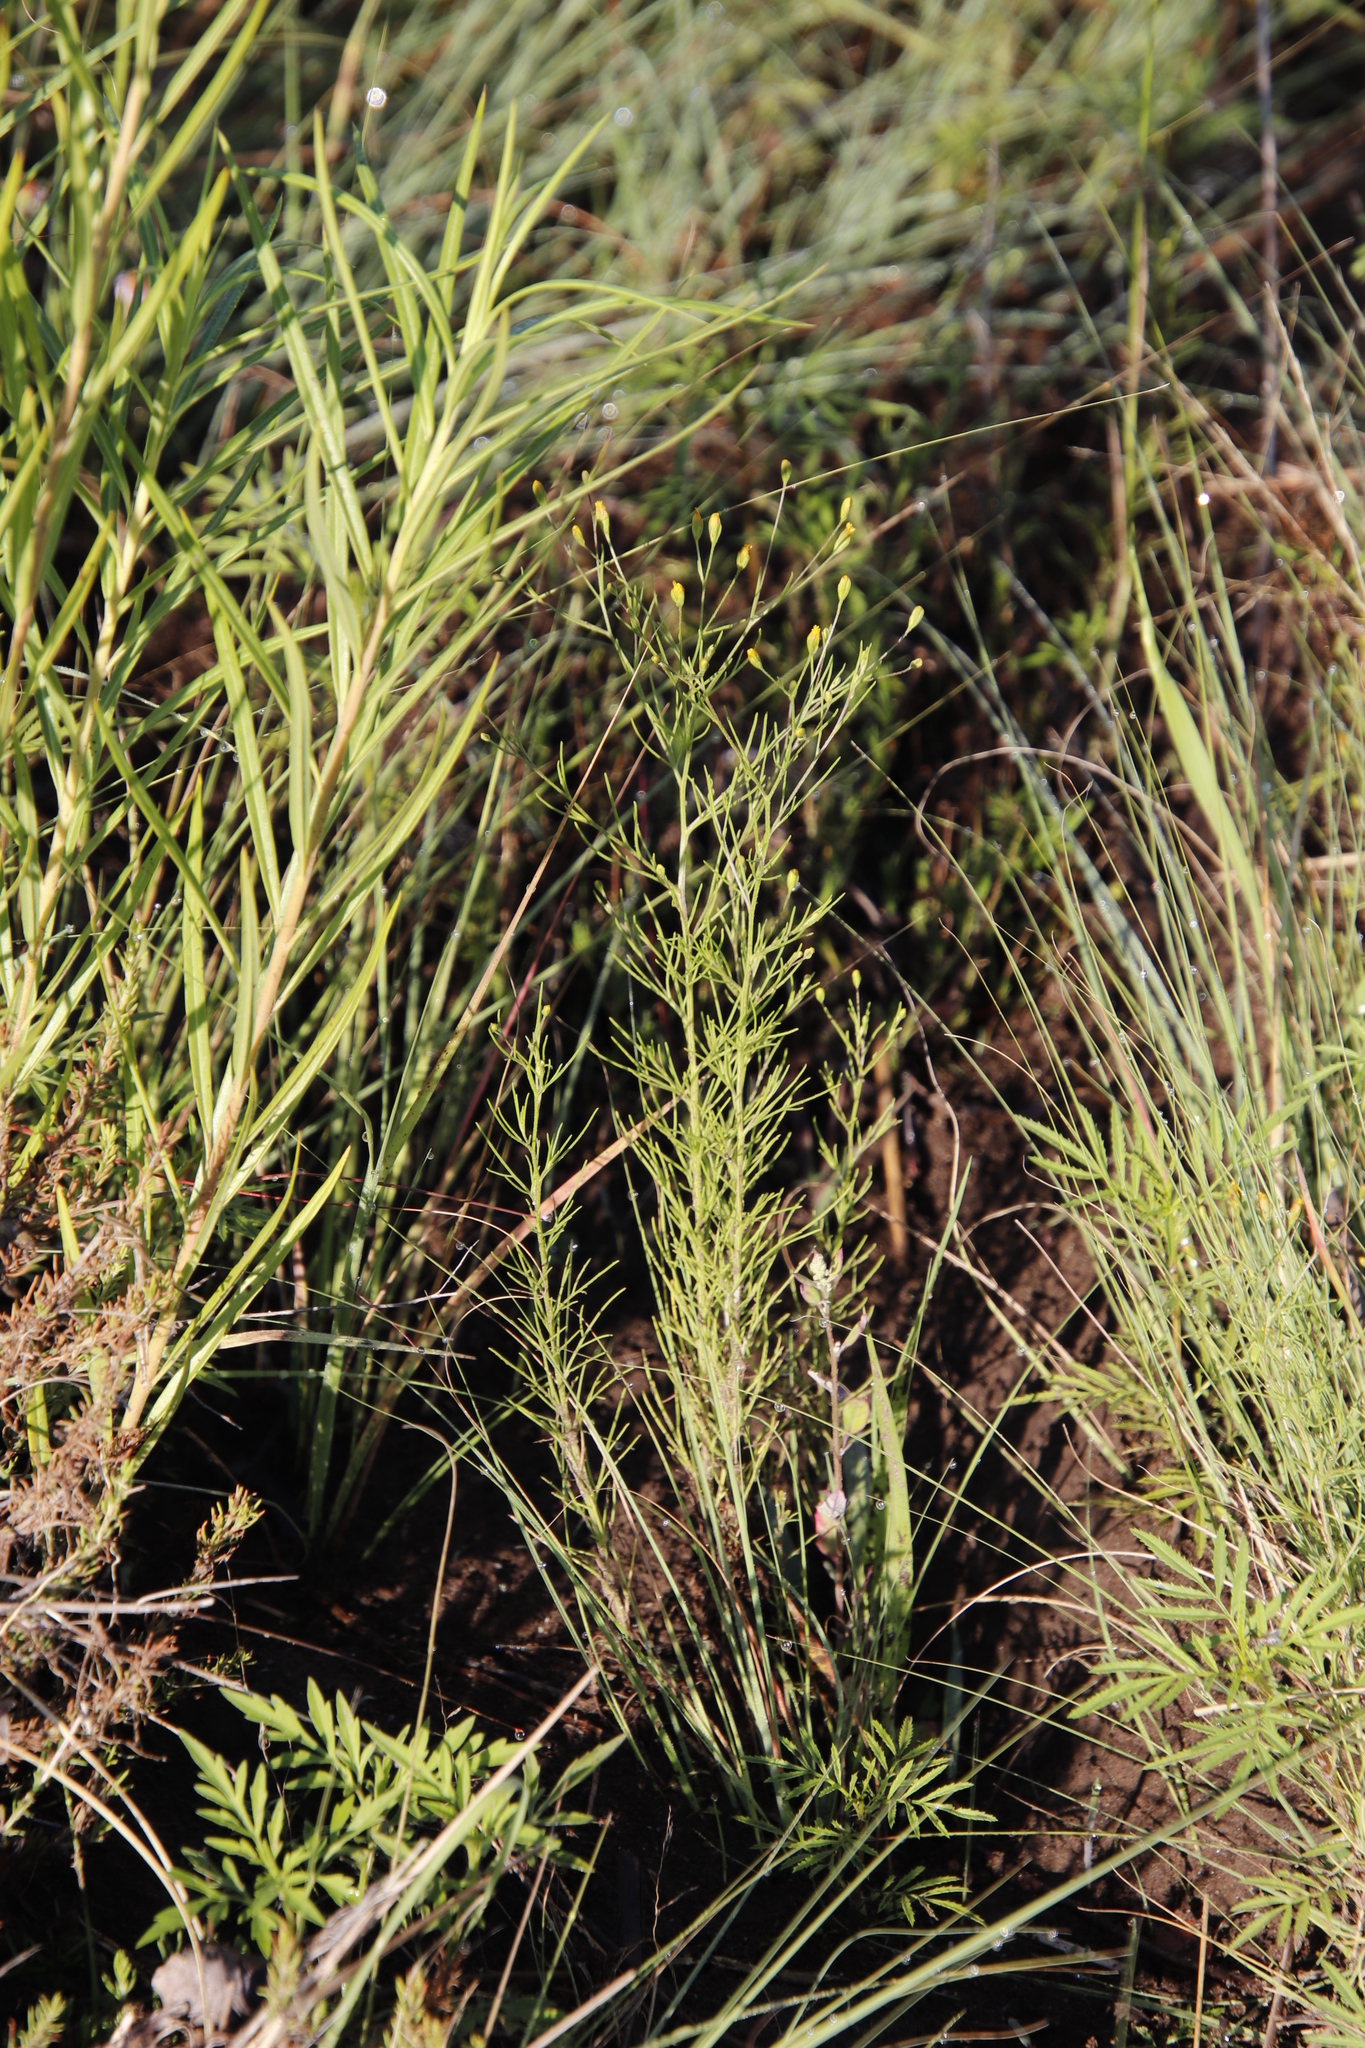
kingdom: Plantae
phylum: Tracheophyta
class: Magnoliopsida
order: Asterales
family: Asteraceae
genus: Schkuhria
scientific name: Schkuhria pinnata
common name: Dwarf marigold
